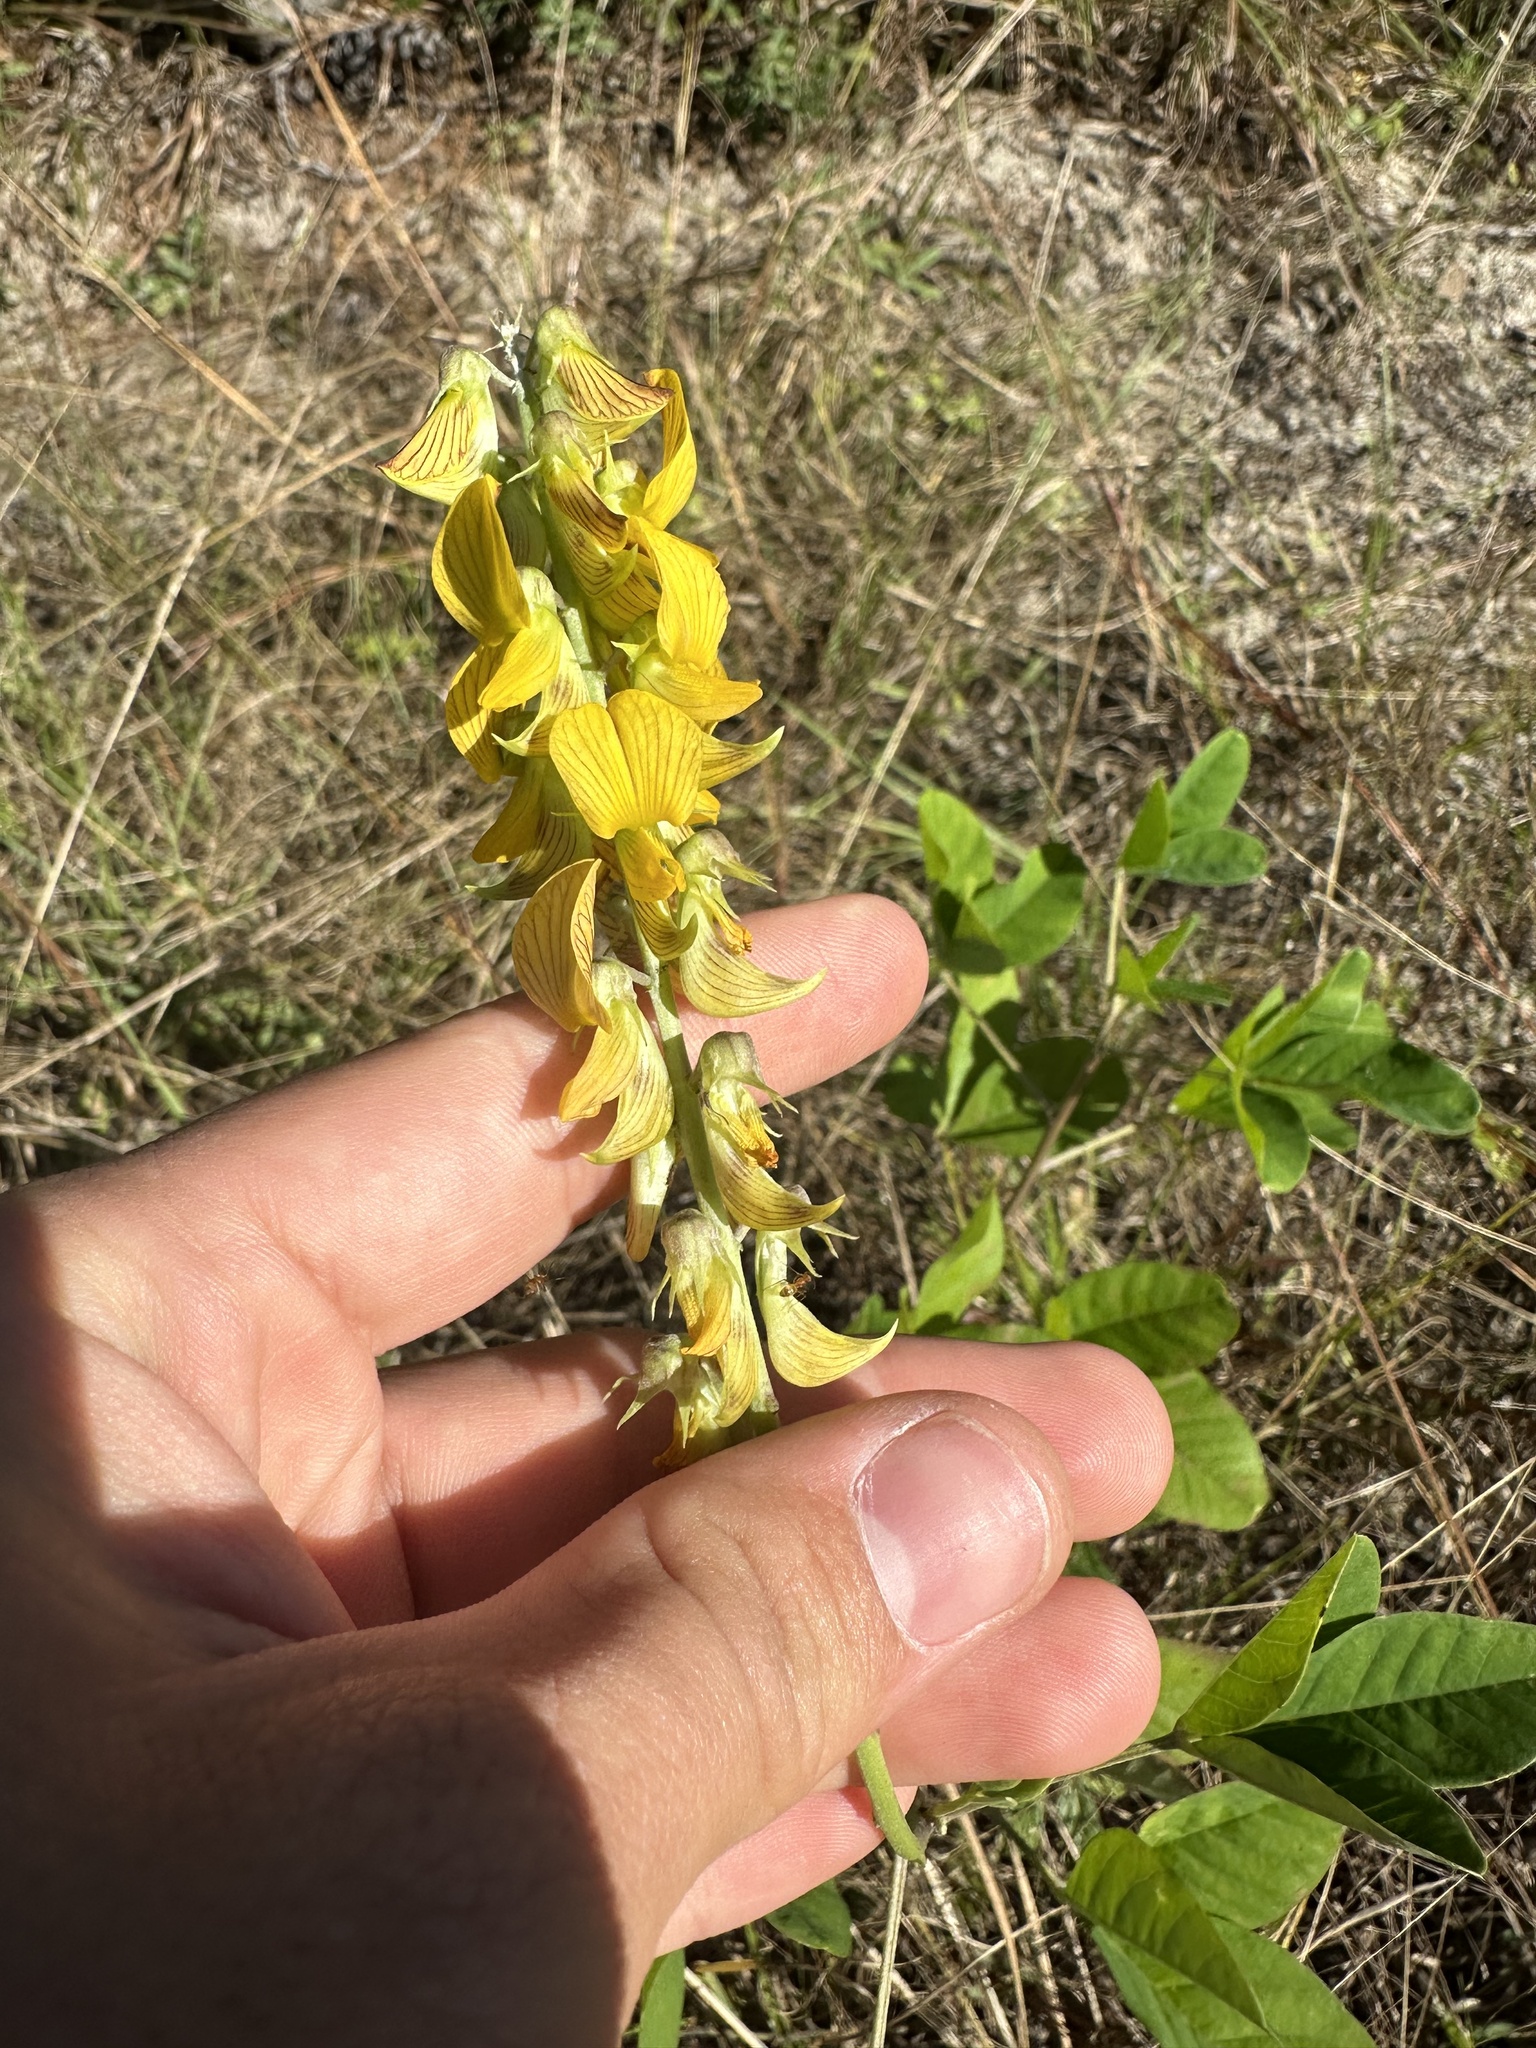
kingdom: Plantae
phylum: Tracheophyta
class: Magnoliopsida
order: Fabales
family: Fabaceae
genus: Crotalaria
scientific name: Crotalaria pallida
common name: Smooth rattlebox
